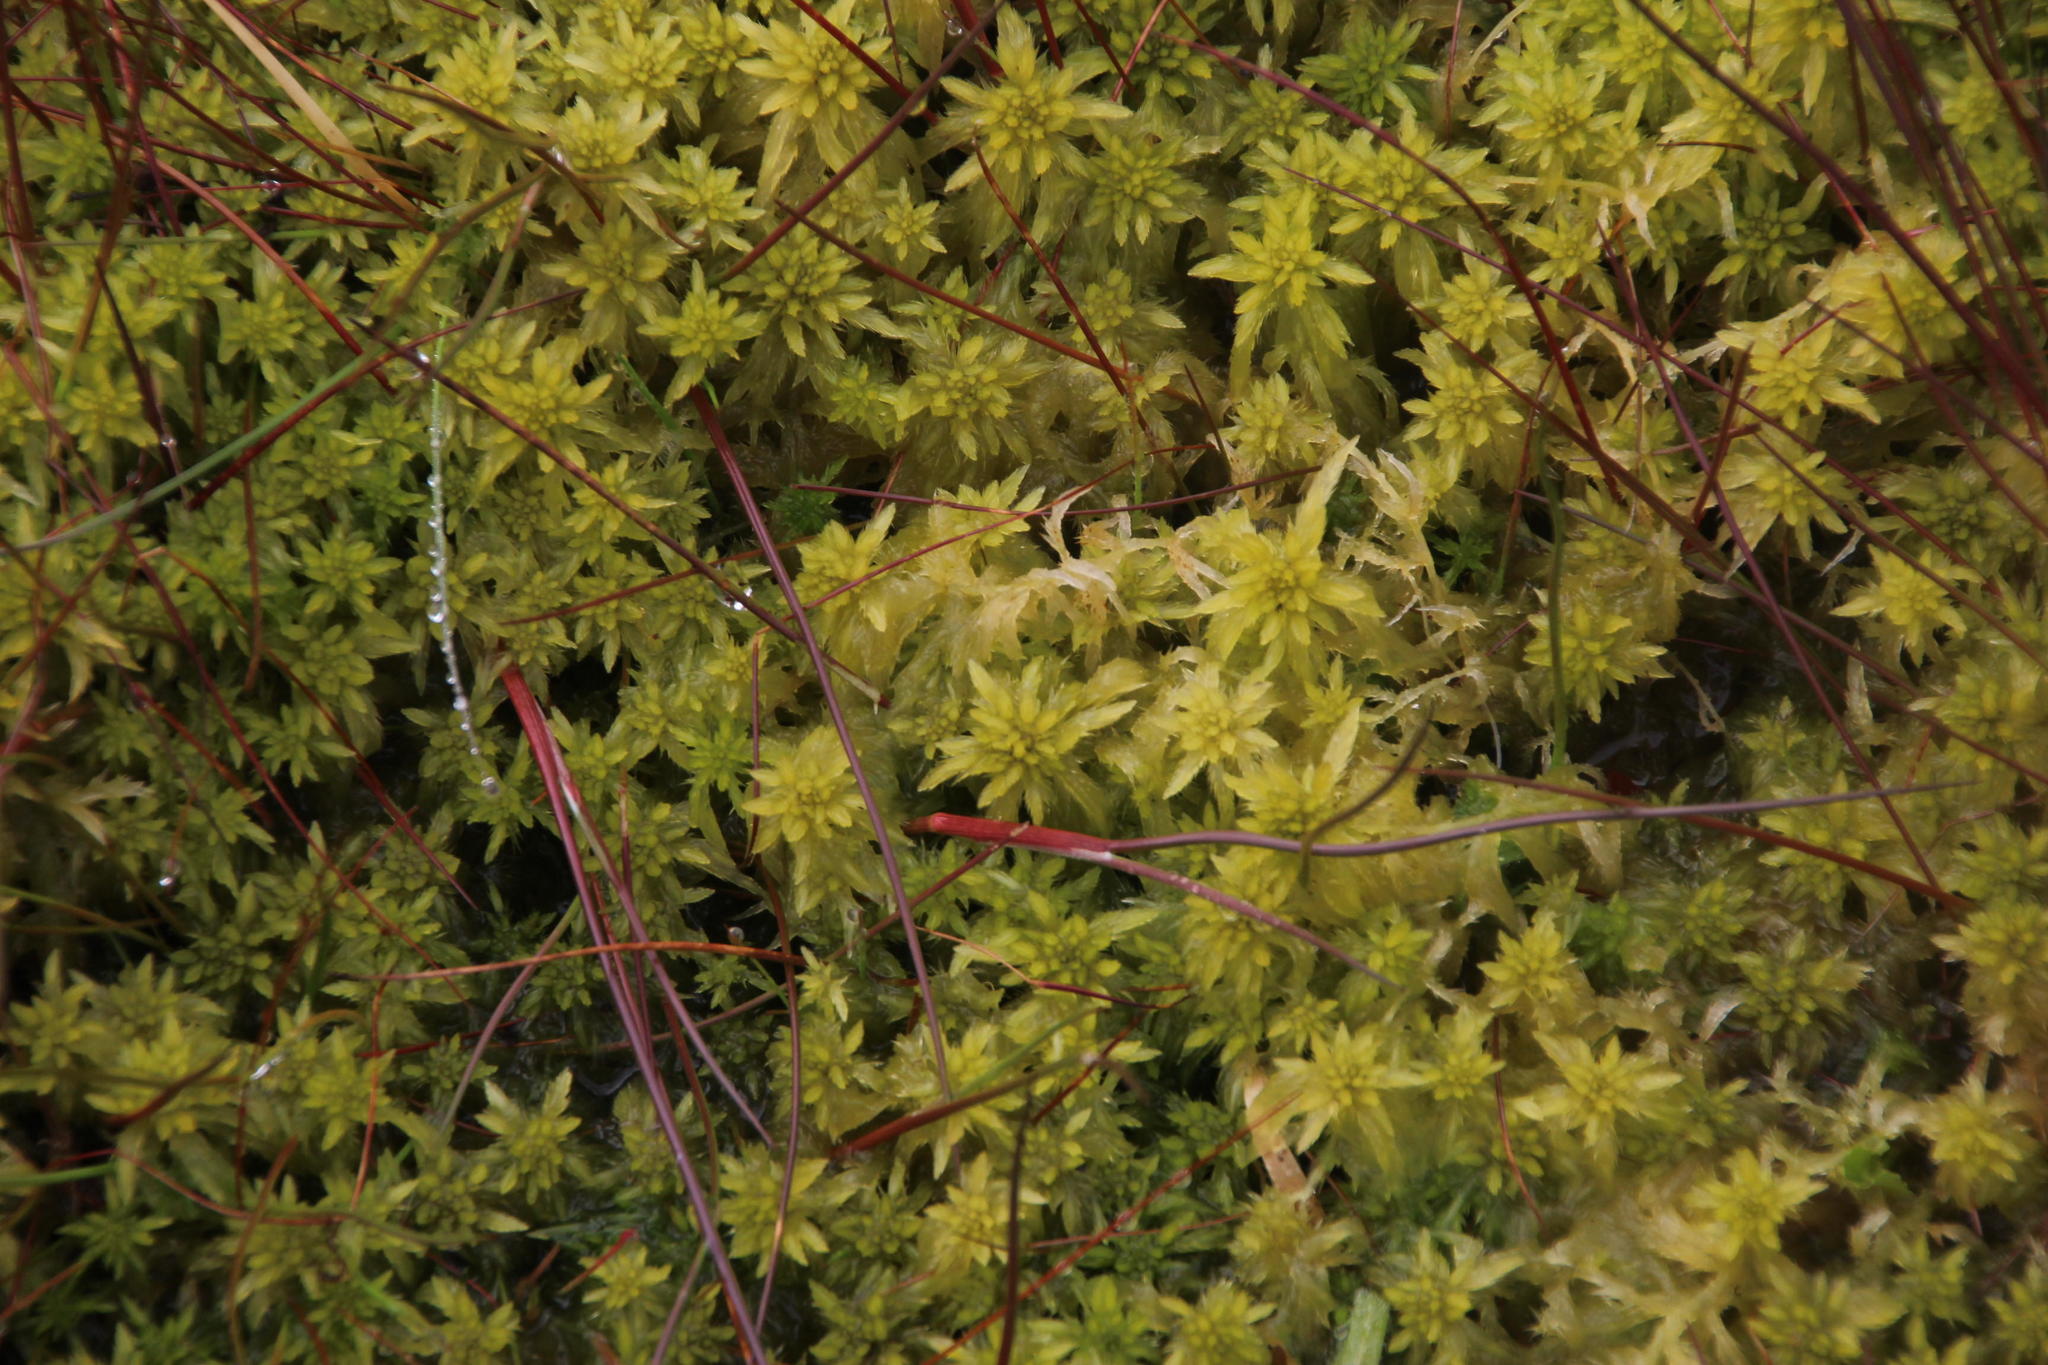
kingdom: Plantae
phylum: Bryophyta
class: Sphagnopsida
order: Sphagnales
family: Sphagnaceae
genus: Sphagnum
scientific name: Sphagnum falcatulum
